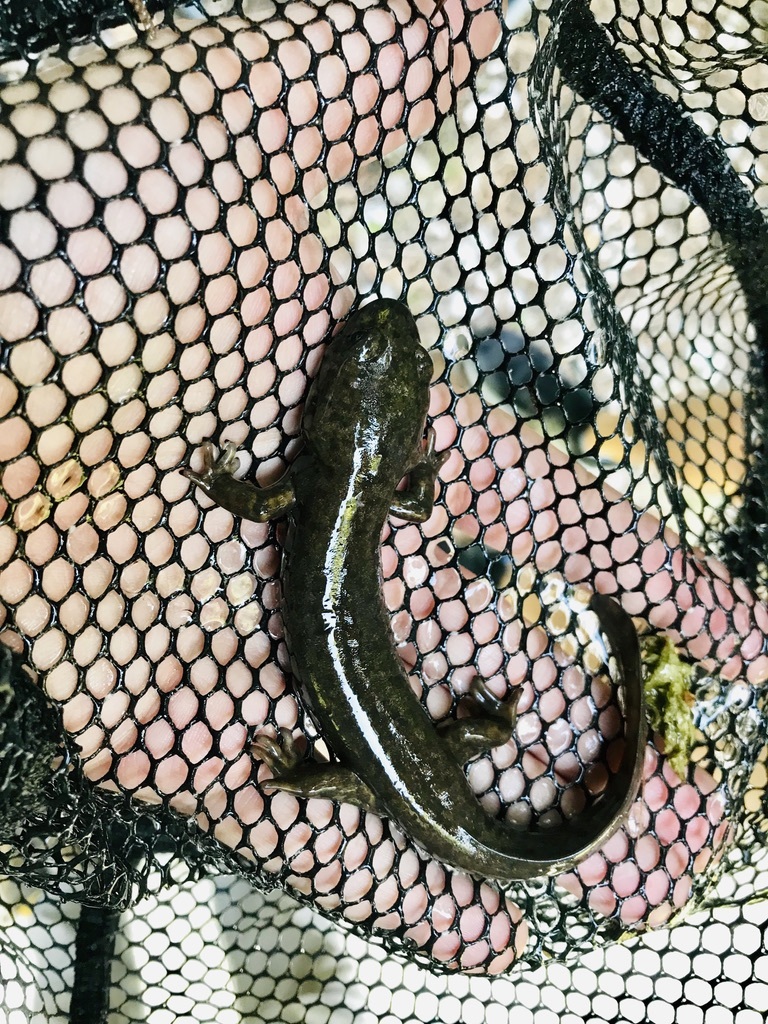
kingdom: Animalia
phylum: Chordata
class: Amphibia
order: Caudata
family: Ambystomatidae
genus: Dicamptodon
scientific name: Dicamptodon tenebrosus
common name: Coastal giant salamander
